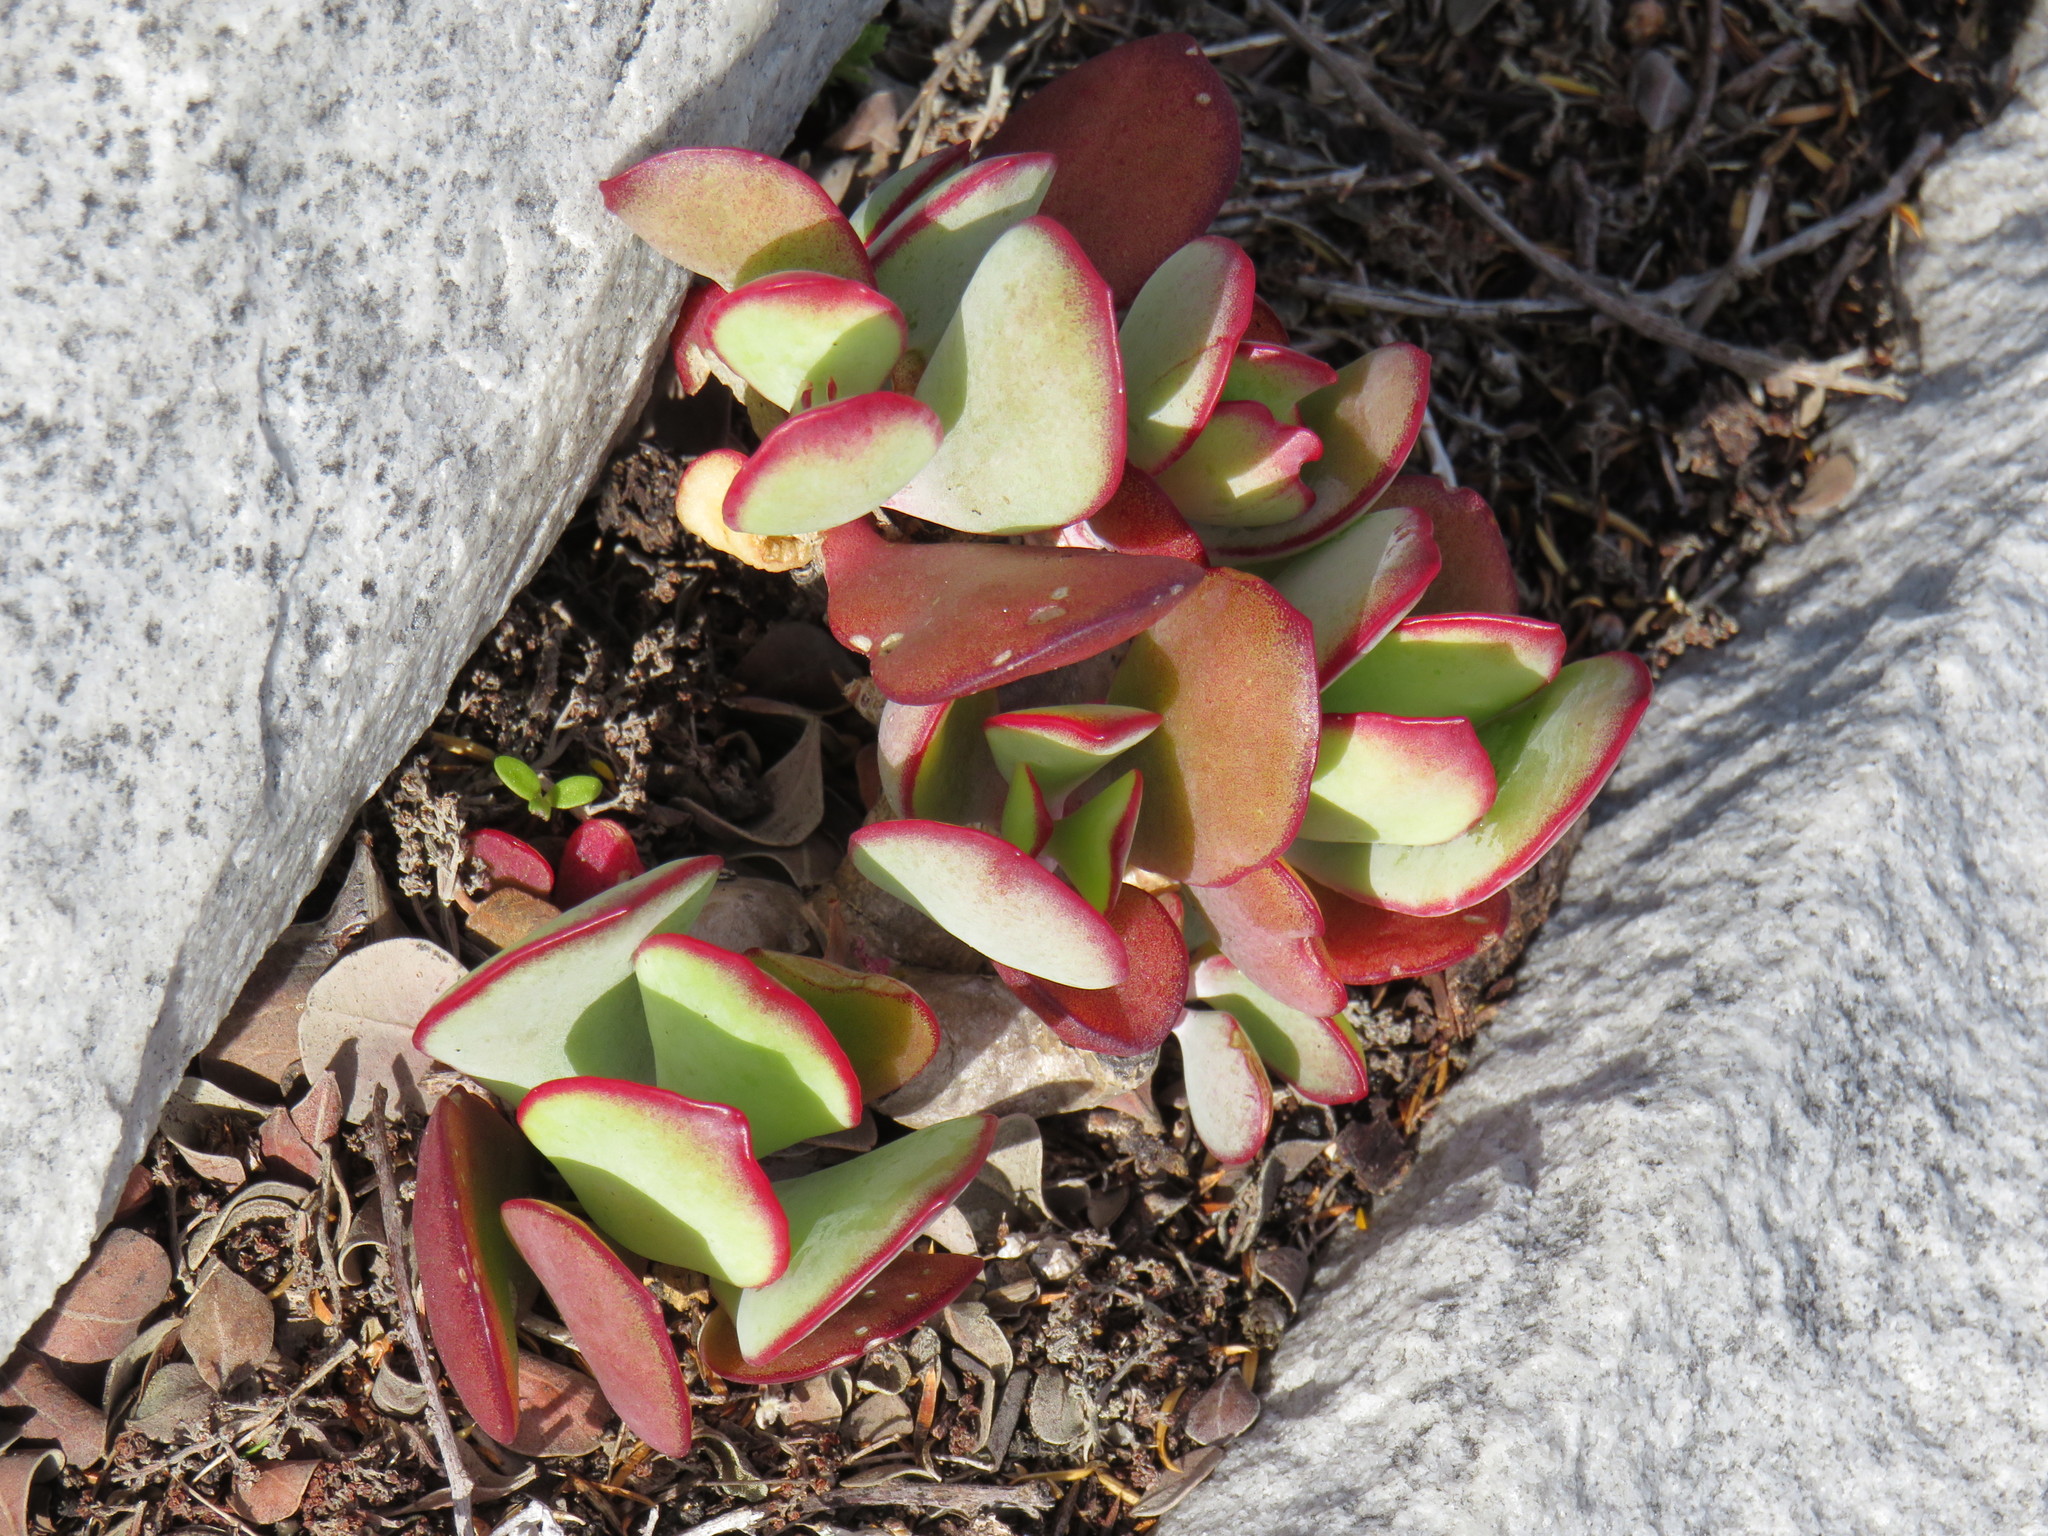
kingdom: Plantae
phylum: Tracheophyta
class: Magnoliopsida
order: Saxifragales
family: Crassulaceae
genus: Cotyledon
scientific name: Cotyledon orbiculata
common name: Pig's ear
